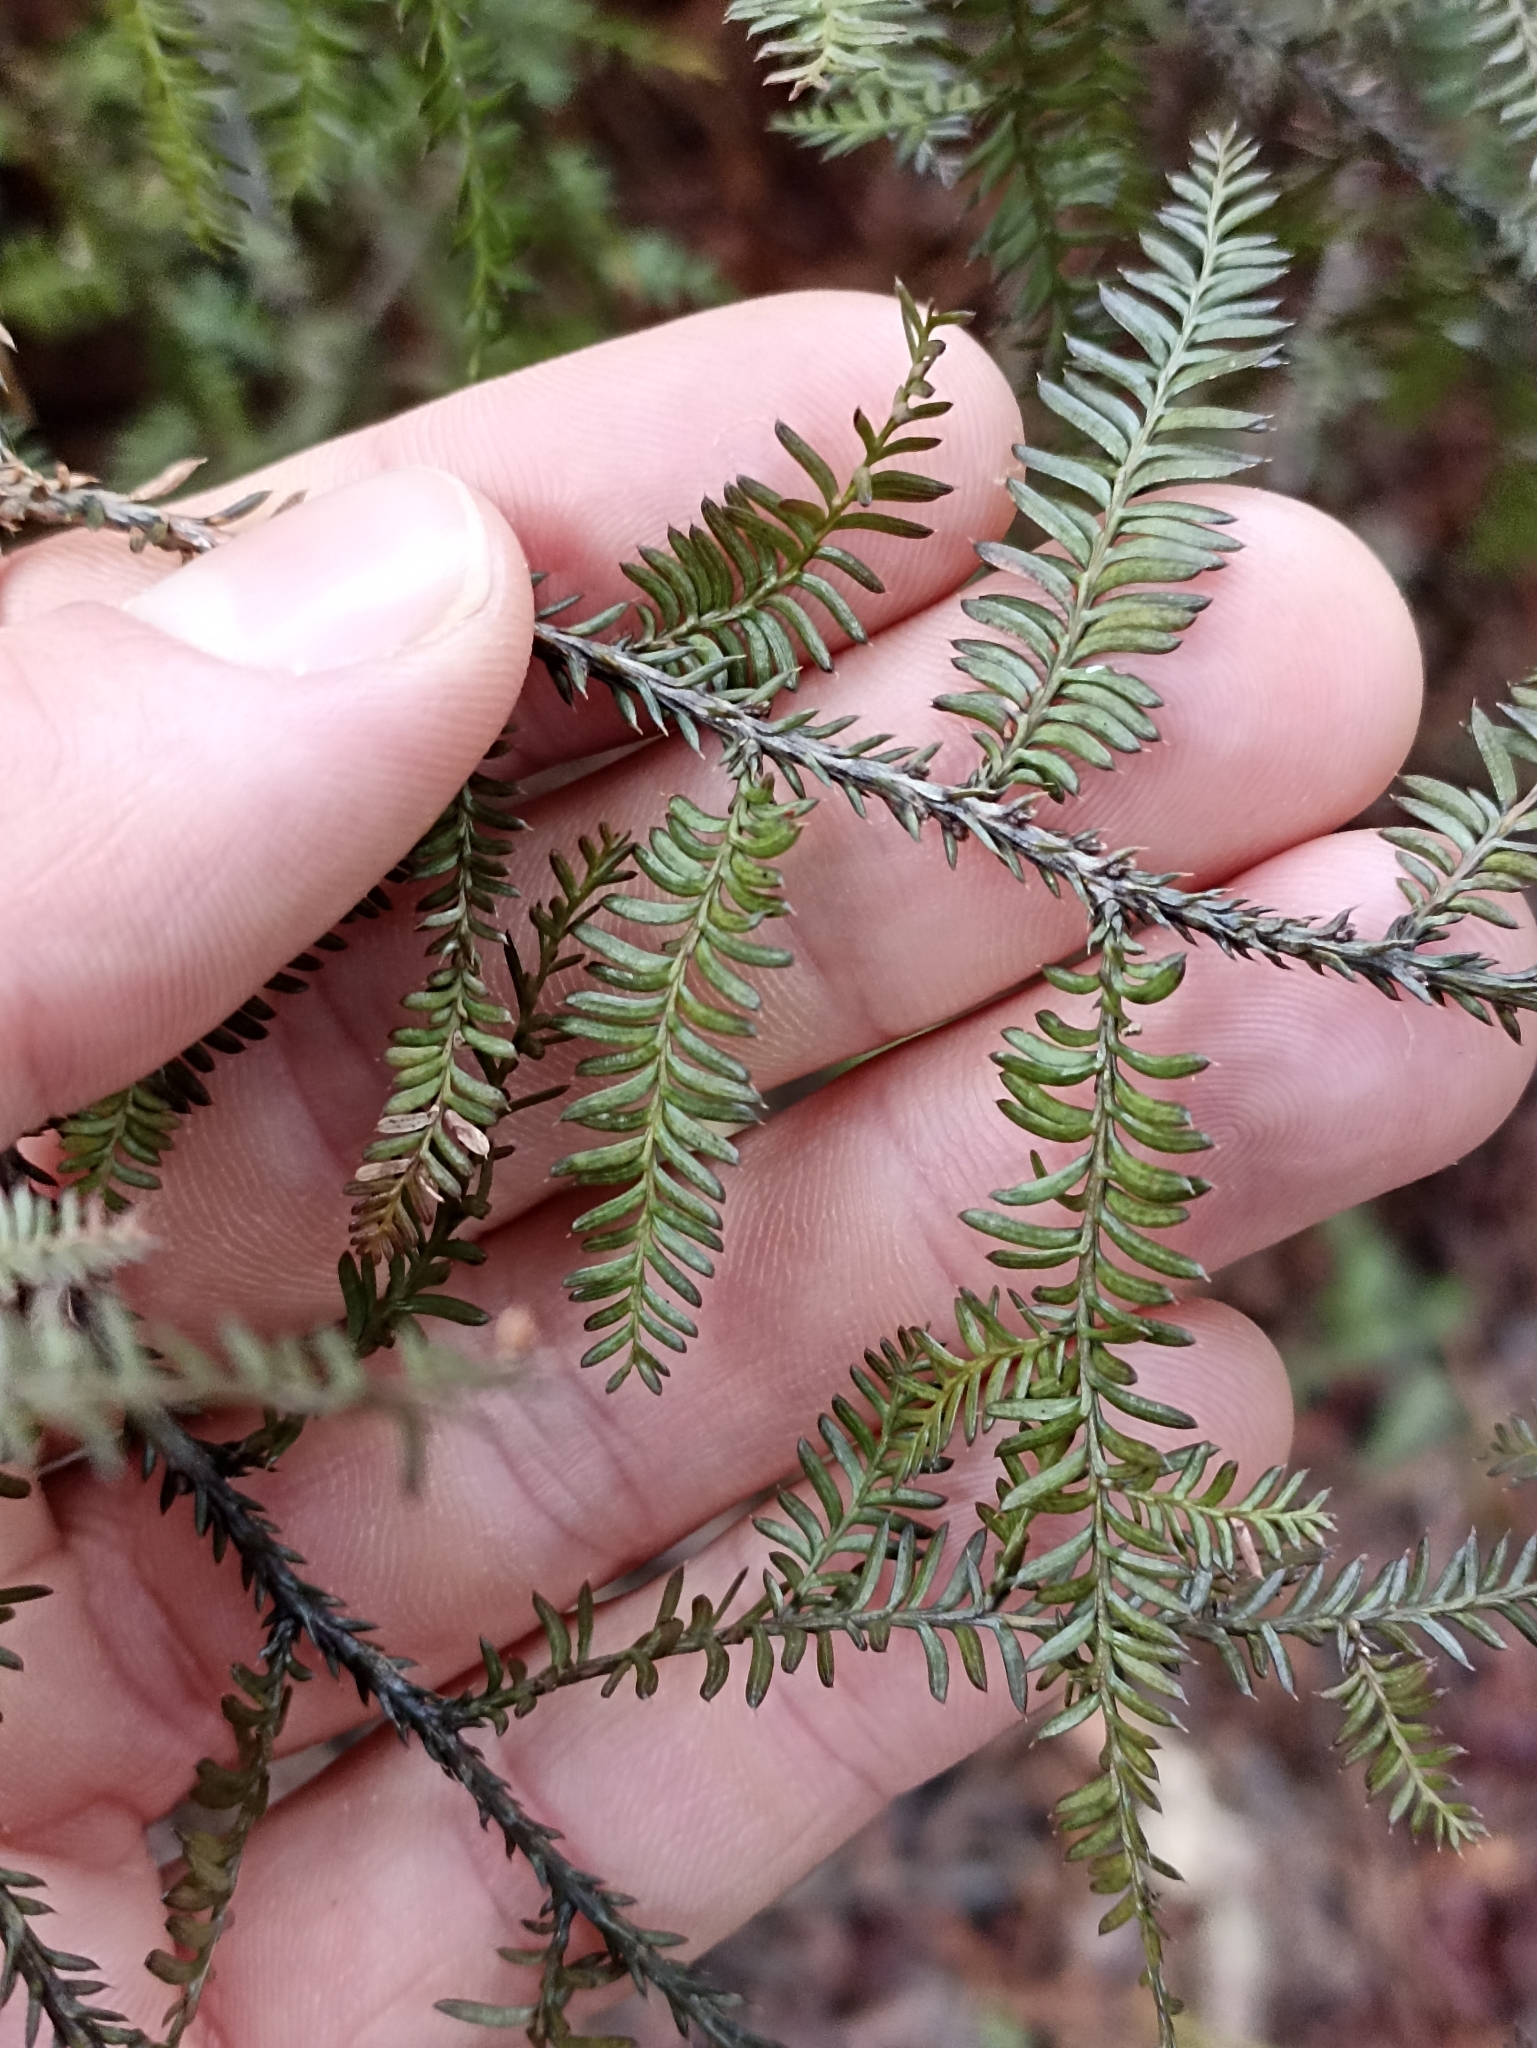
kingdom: Plantae
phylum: Tracheophyta
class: Pinopsida
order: Pinales
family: Podocarpaceae
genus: Dacrycarpus
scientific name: Dacrycarpus dacrydioides
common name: White pine
